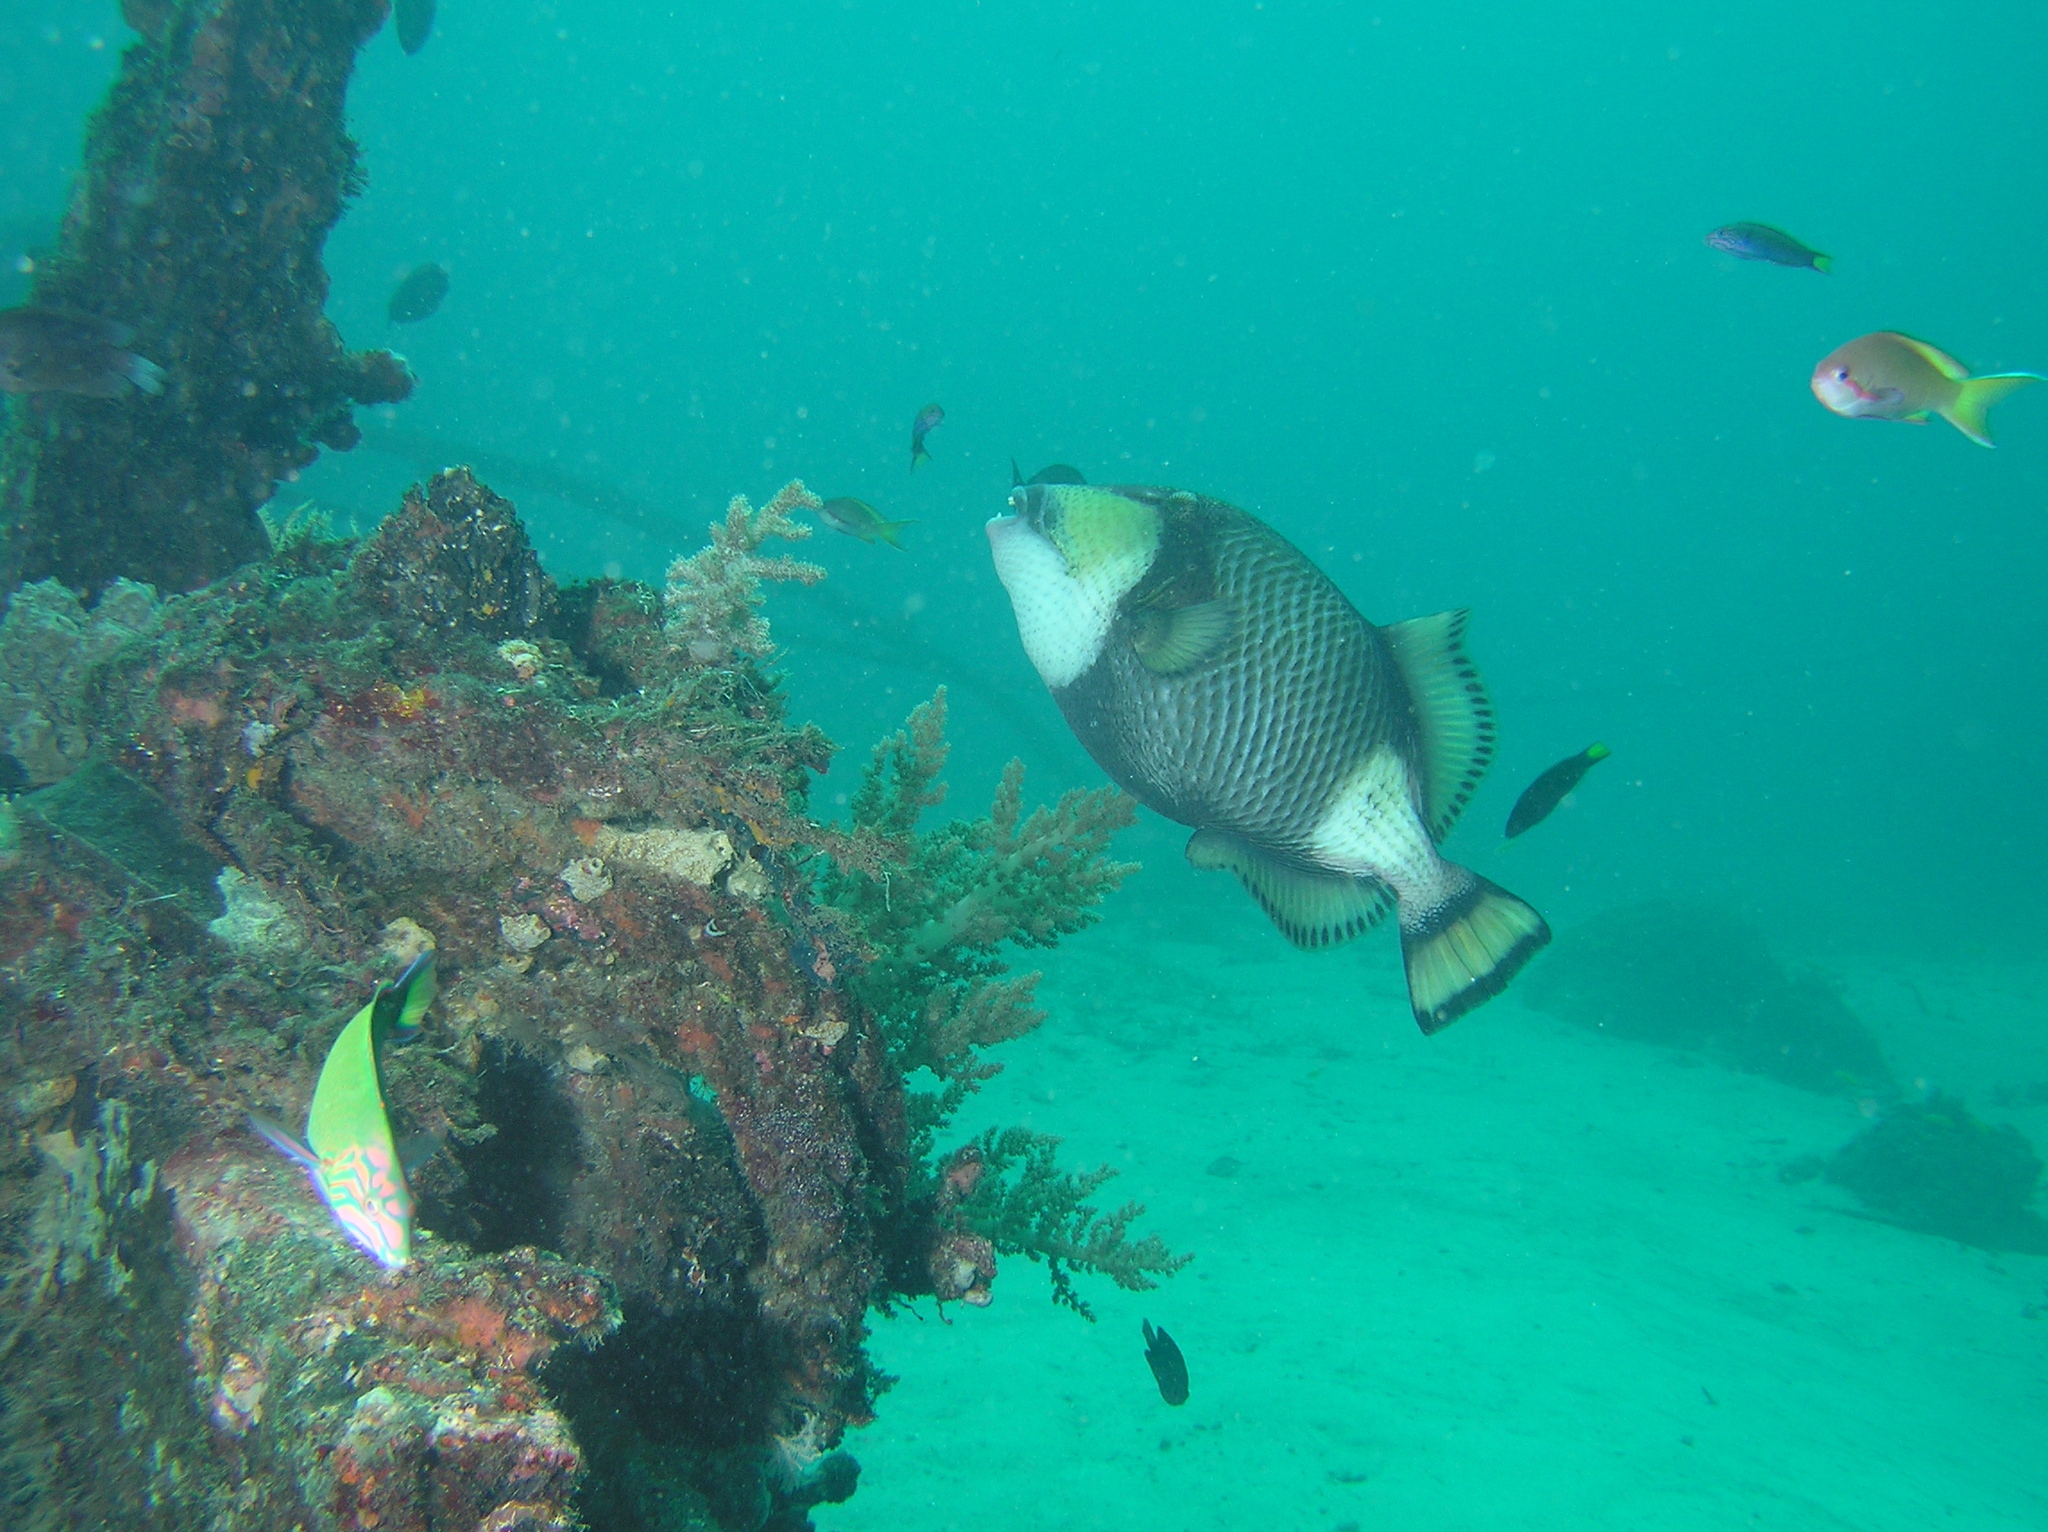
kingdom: Animalia
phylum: Chordata
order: Tetraodontiformes
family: Balistidae
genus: Balistoides
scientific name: Balistoides viridescens
